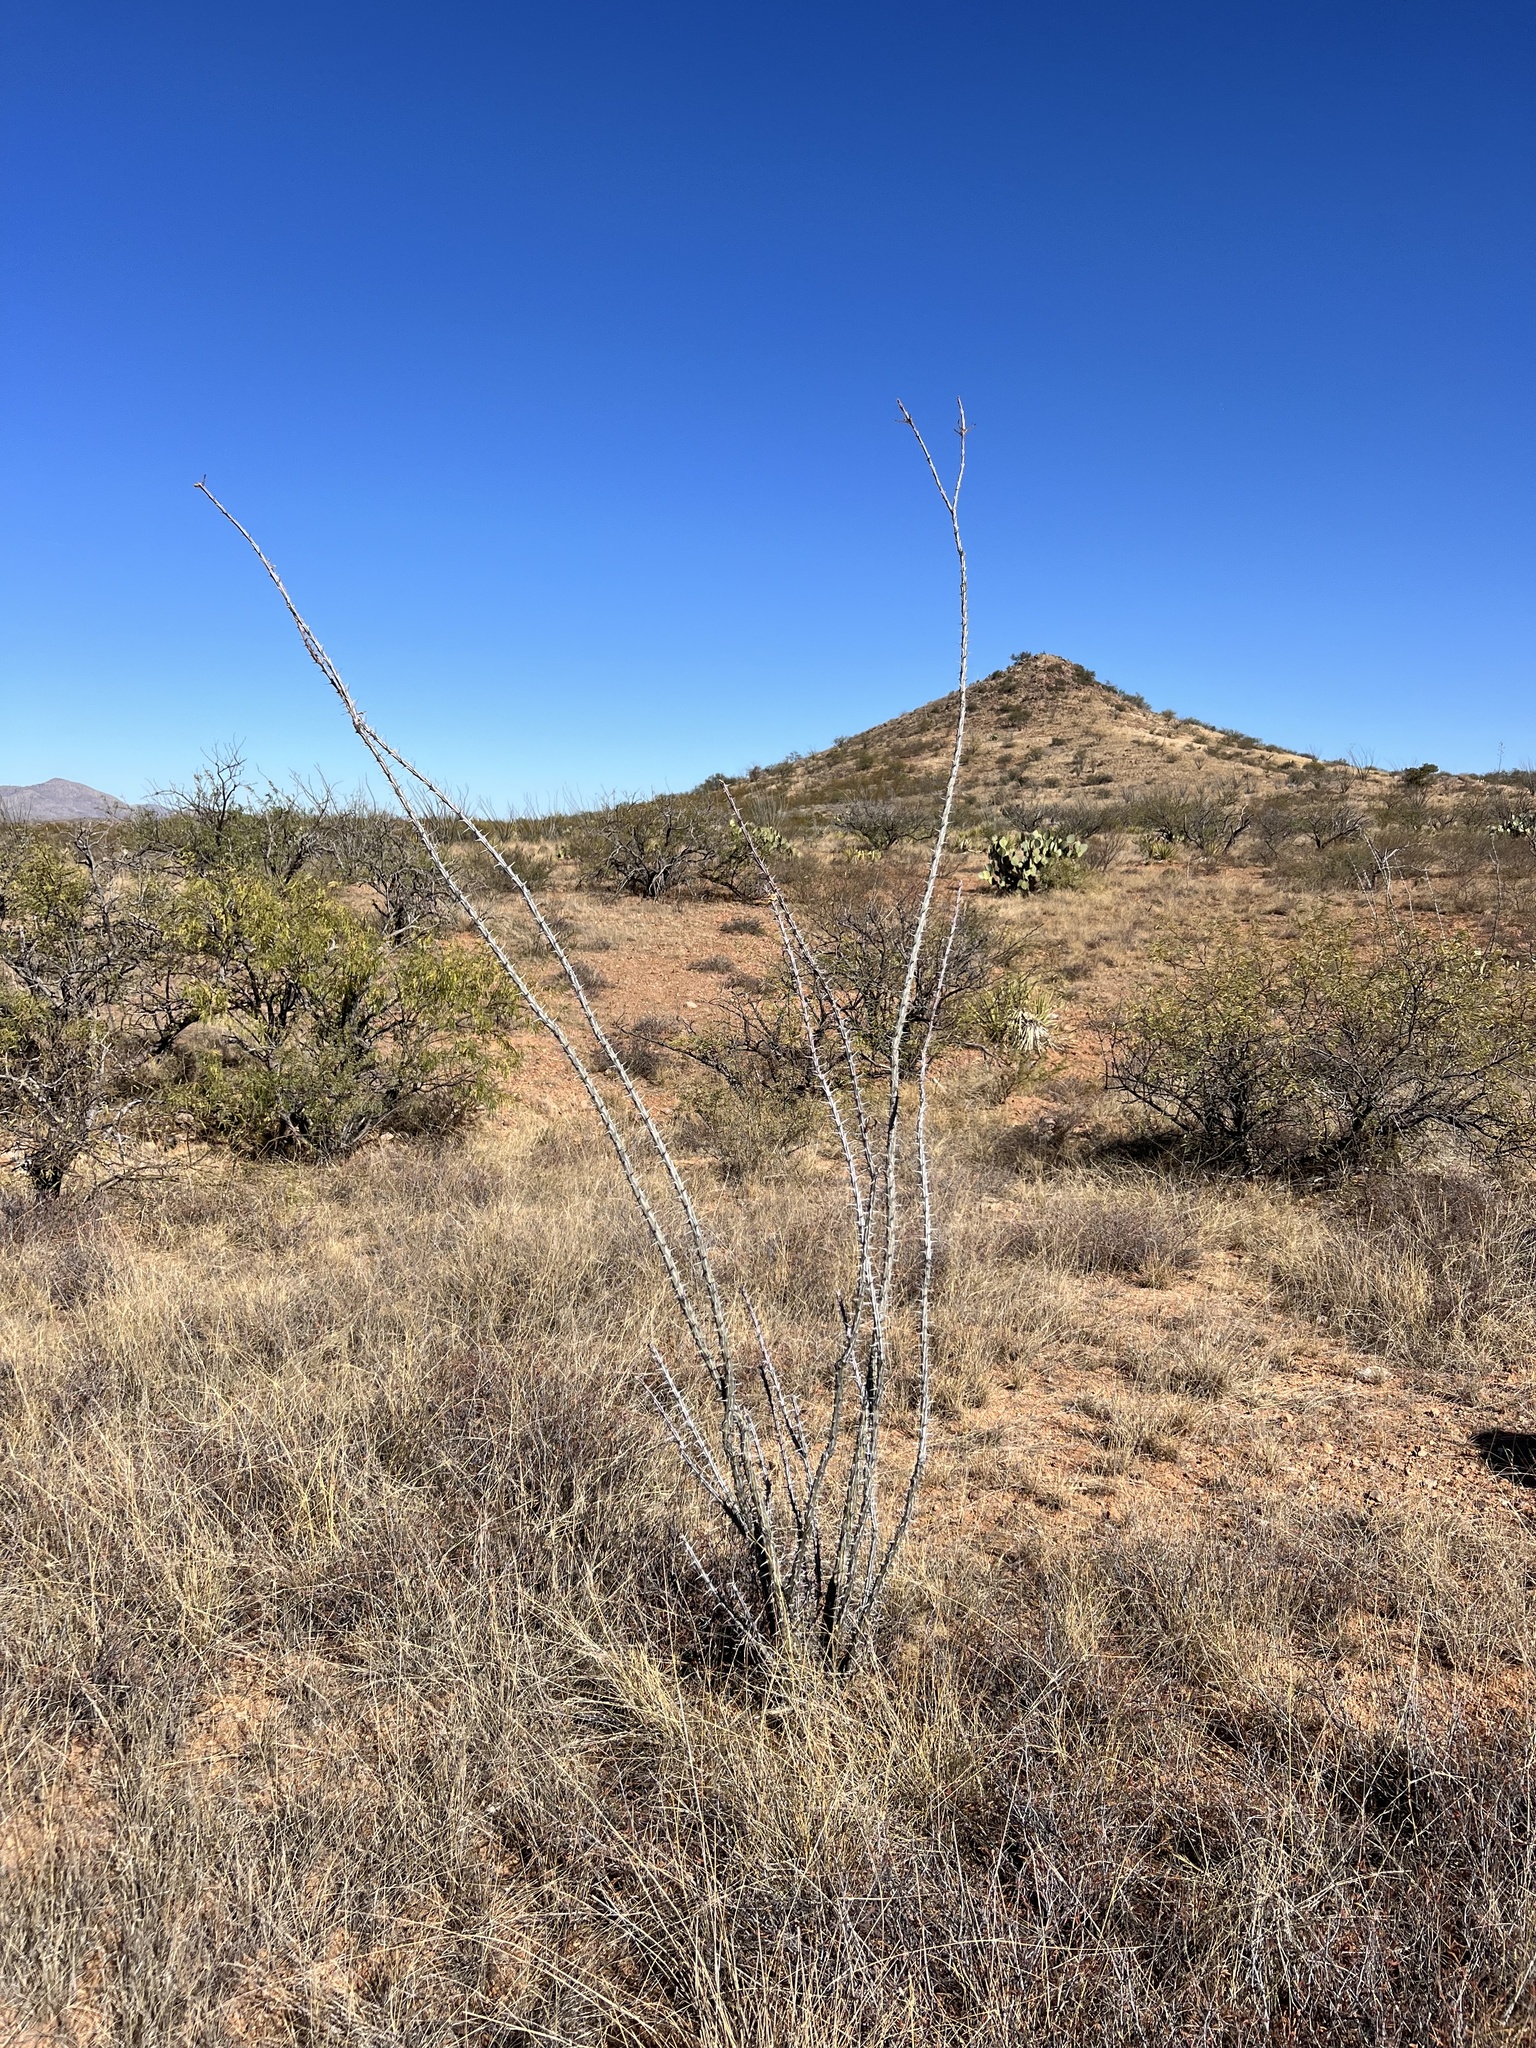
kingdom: Plantae
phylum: Tracheophyta
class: Magnoliopsida
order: Ericales
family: Fouquieriaceae
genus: Fouquieria
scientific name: Fouquieria splendens
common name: Vine-cactus
